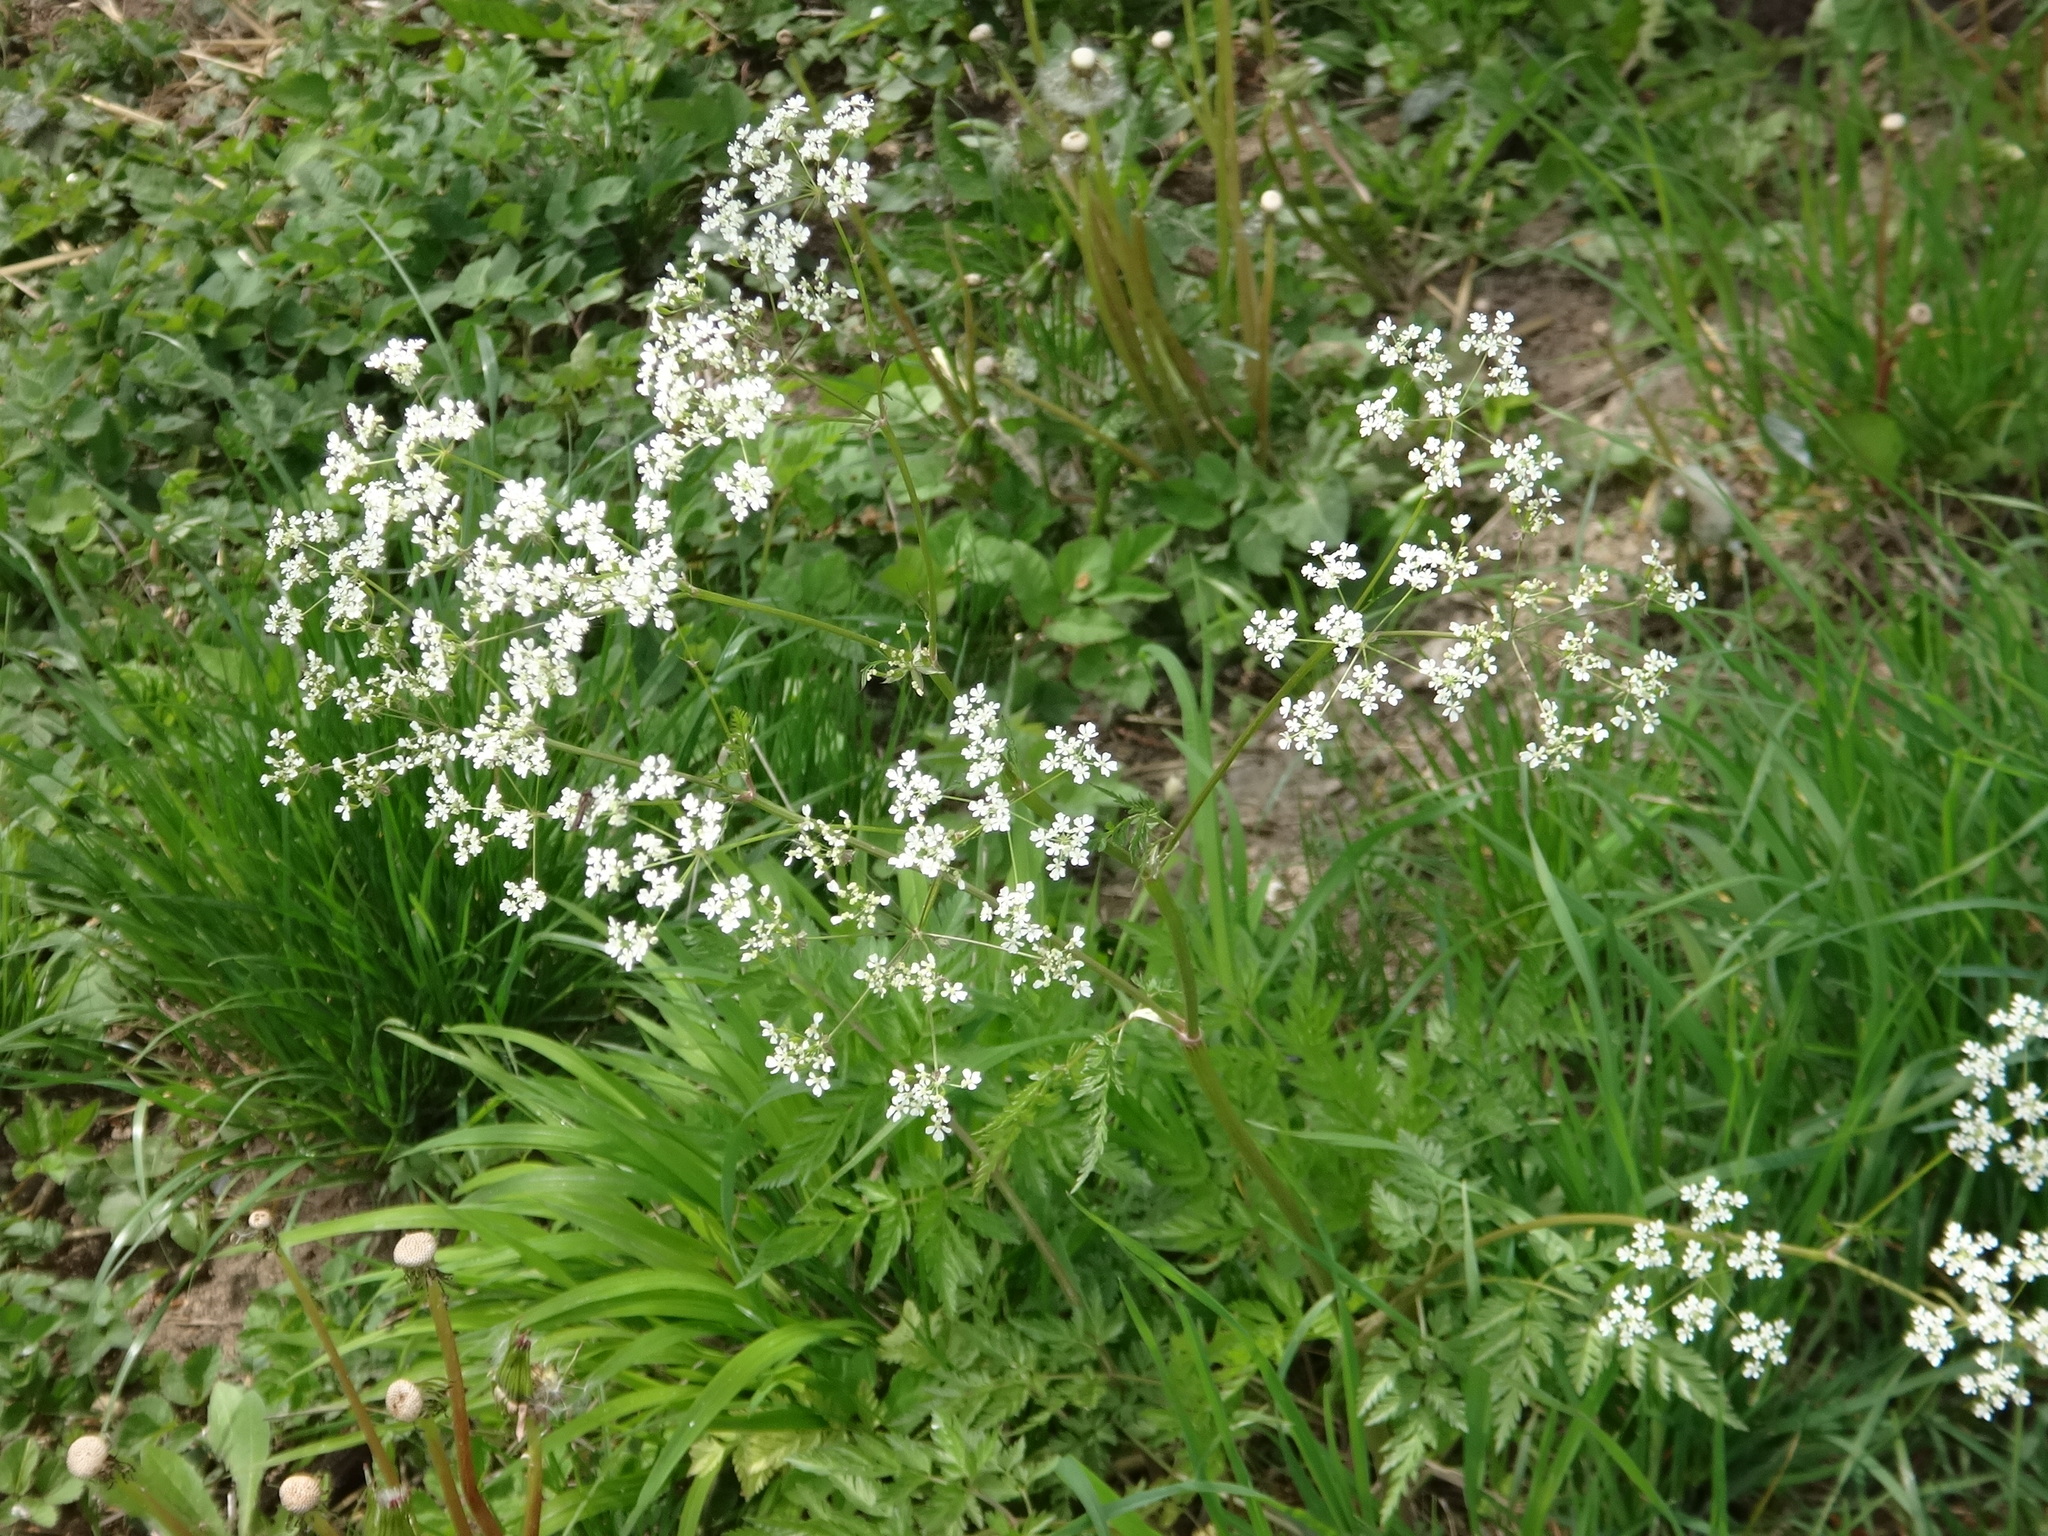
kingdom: Plantae
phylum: Tracheophyta
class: Magnoliopsida
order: Apiales
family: Apiaceae
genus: Anthriscus
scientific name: Anthriscus sylvestris
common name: Cow parsley
